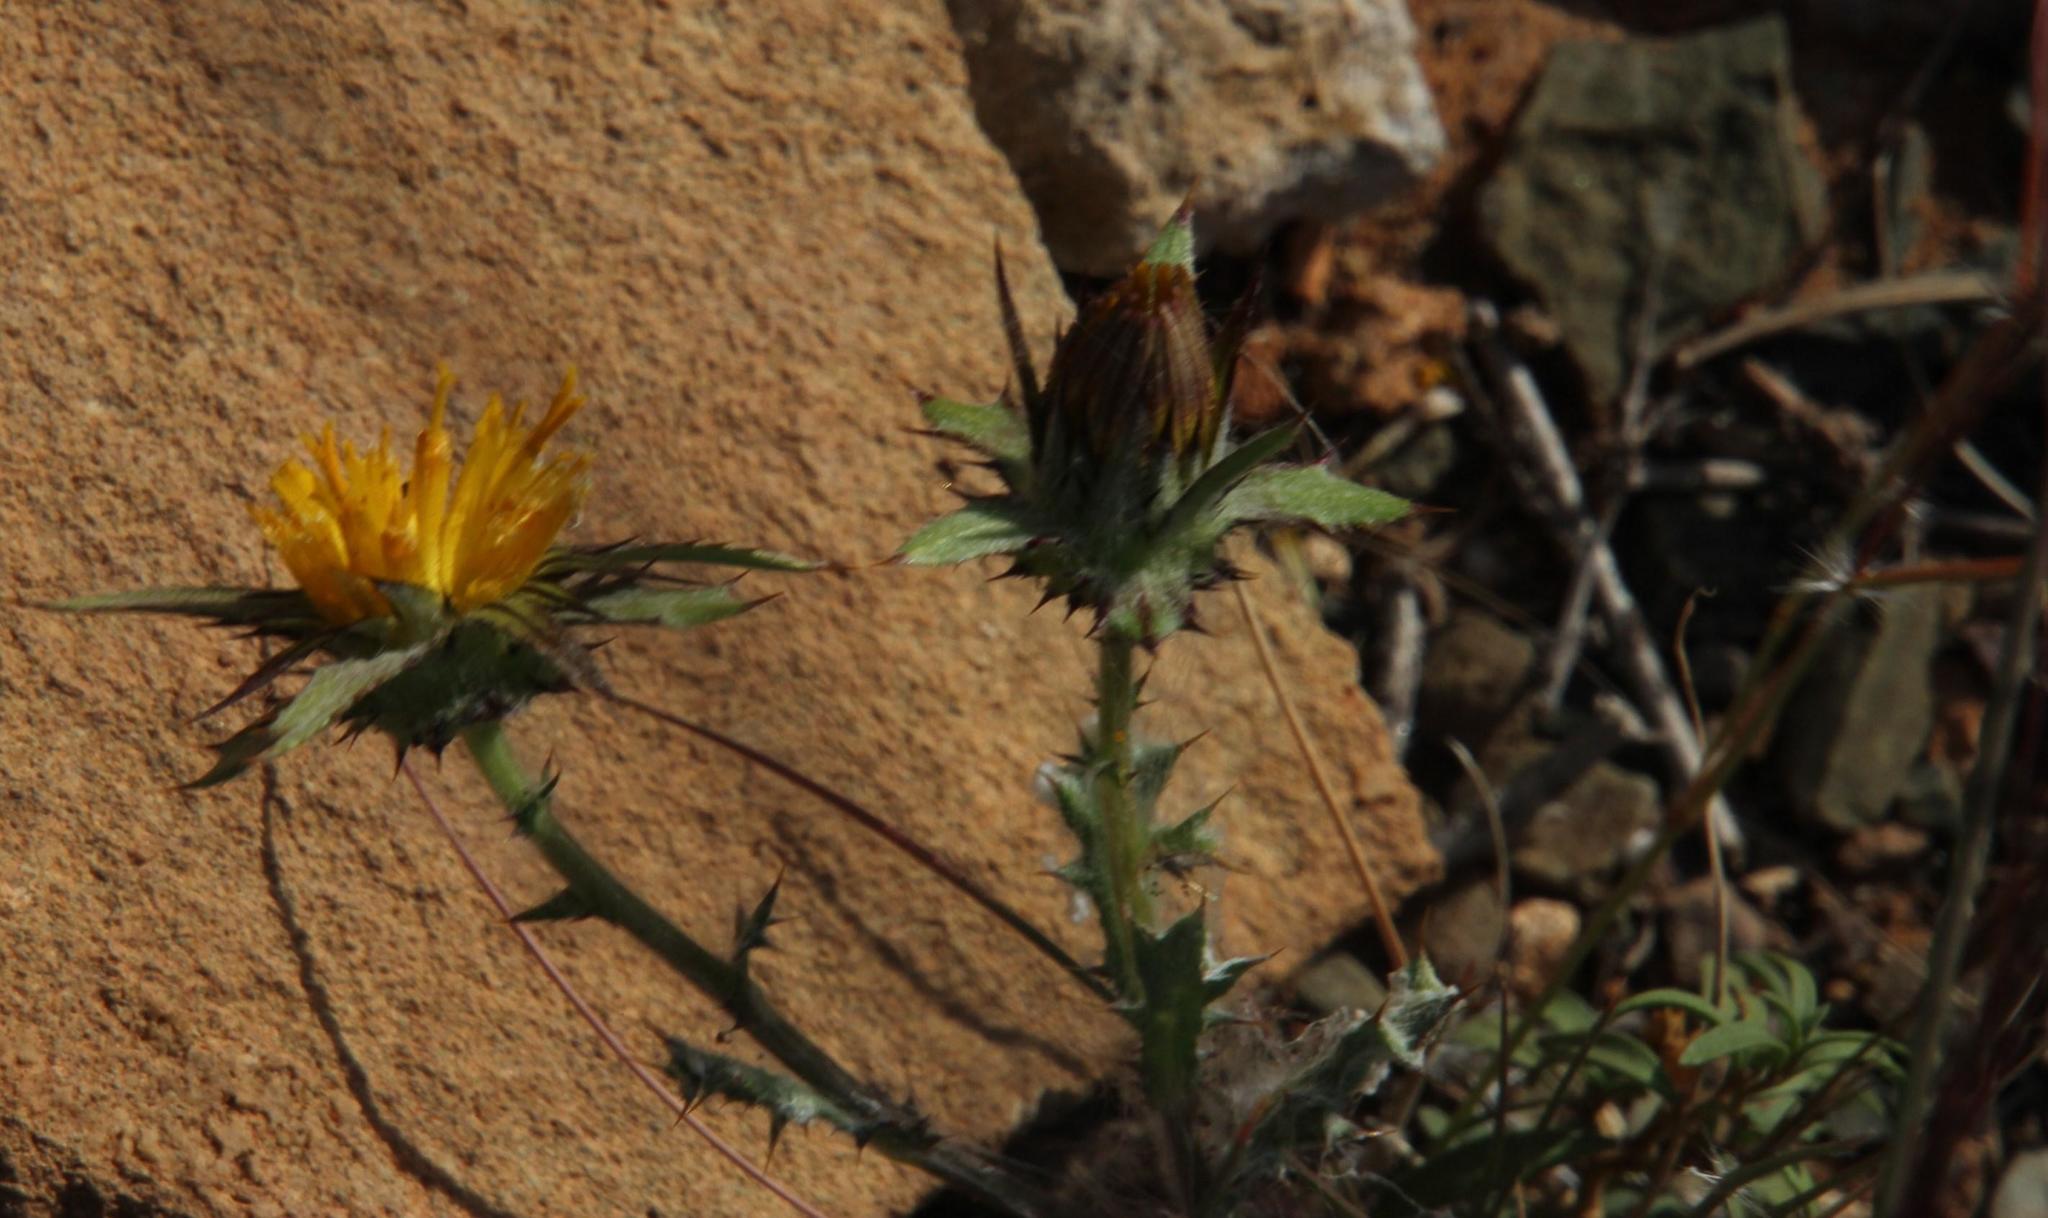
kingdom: Plantae
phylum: Tracheophyta
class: Magnoliopsida
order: Asterales
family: Asteraceae
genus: Cuspidia
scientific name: Cuspidia cernua
